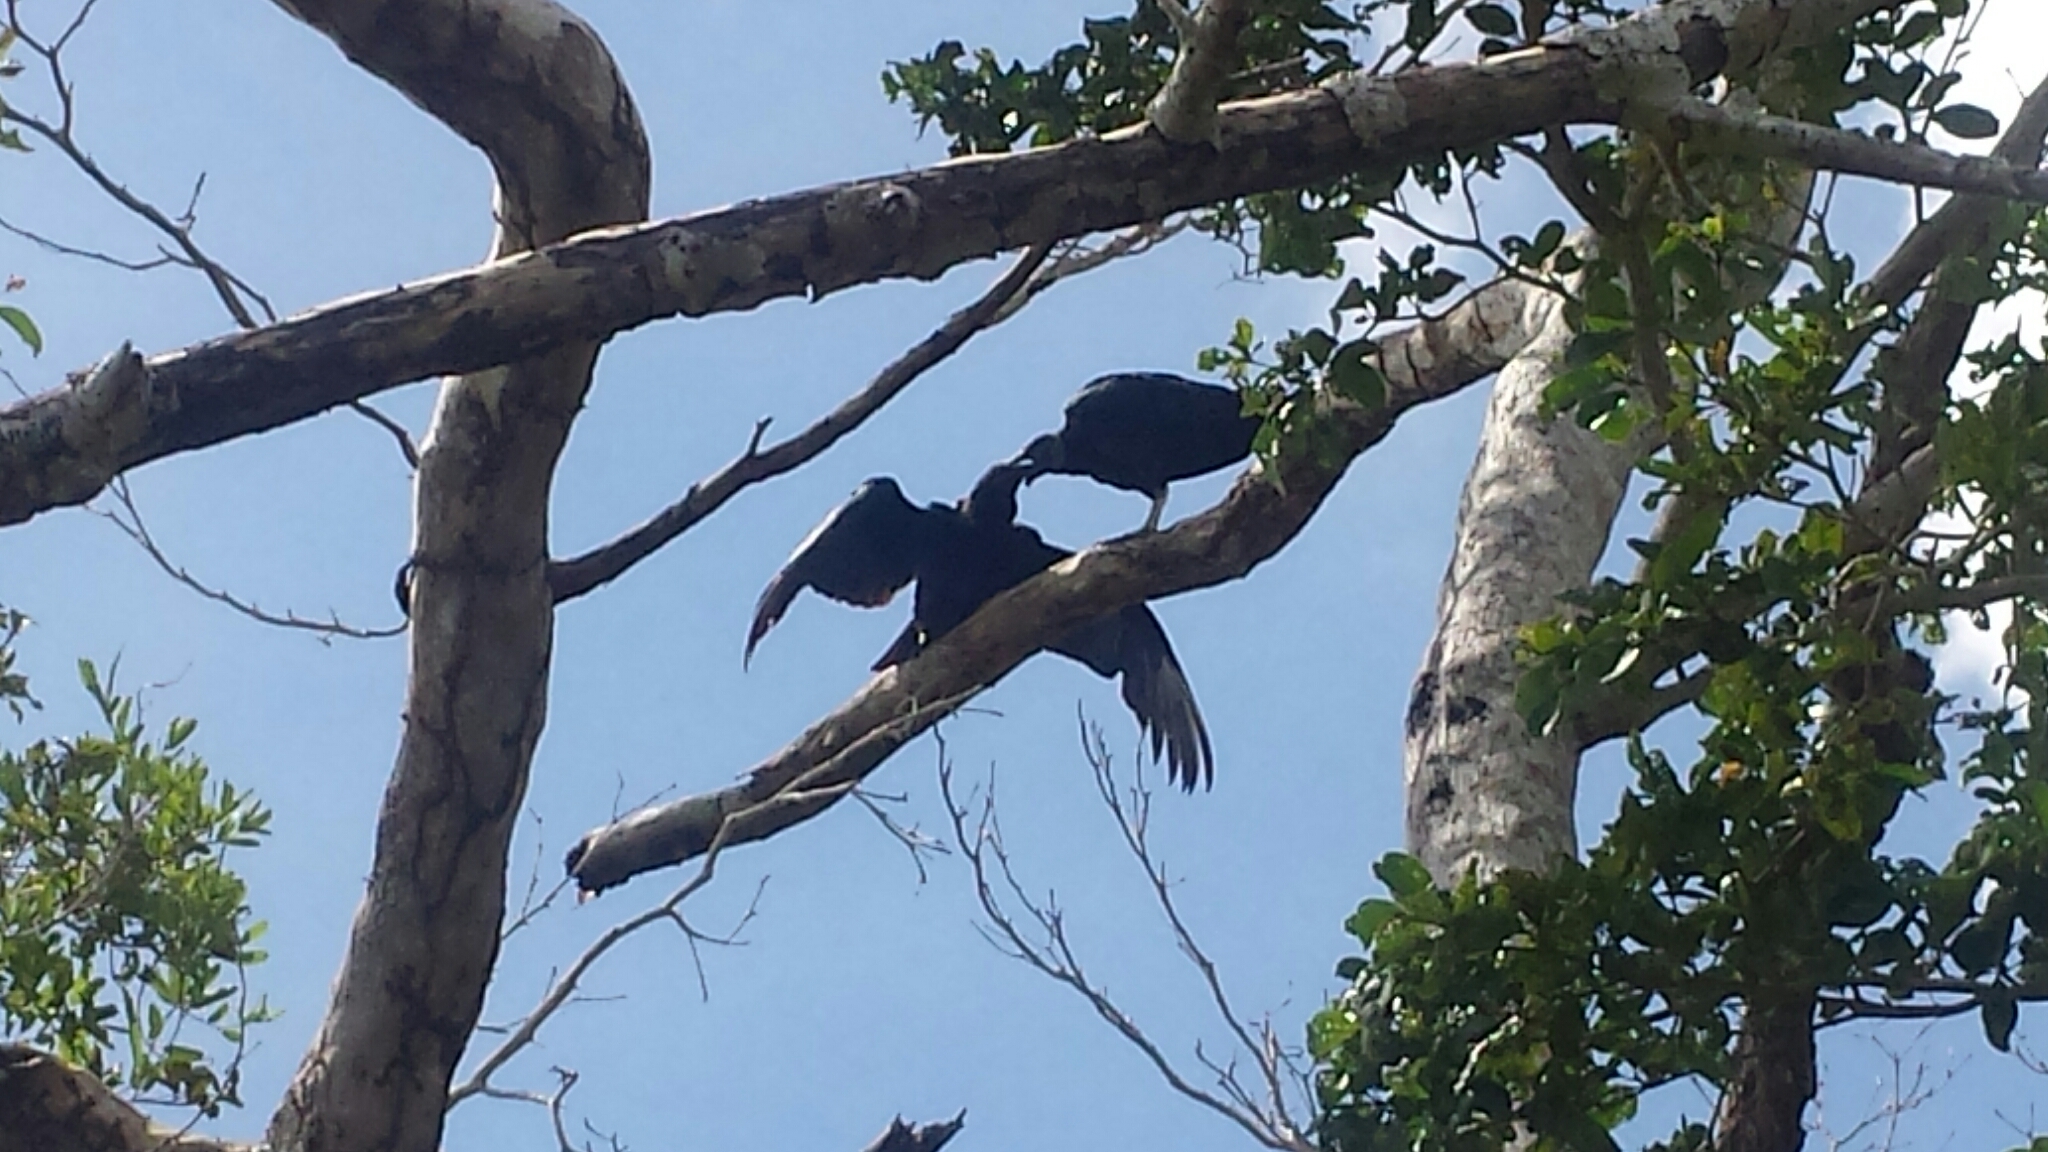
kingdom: Animalia
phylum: Chordata
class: Aves
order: Accipitriformes
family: Cathartidae
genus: Coragyps
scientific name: Coragyps atratus
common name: Black vulture
